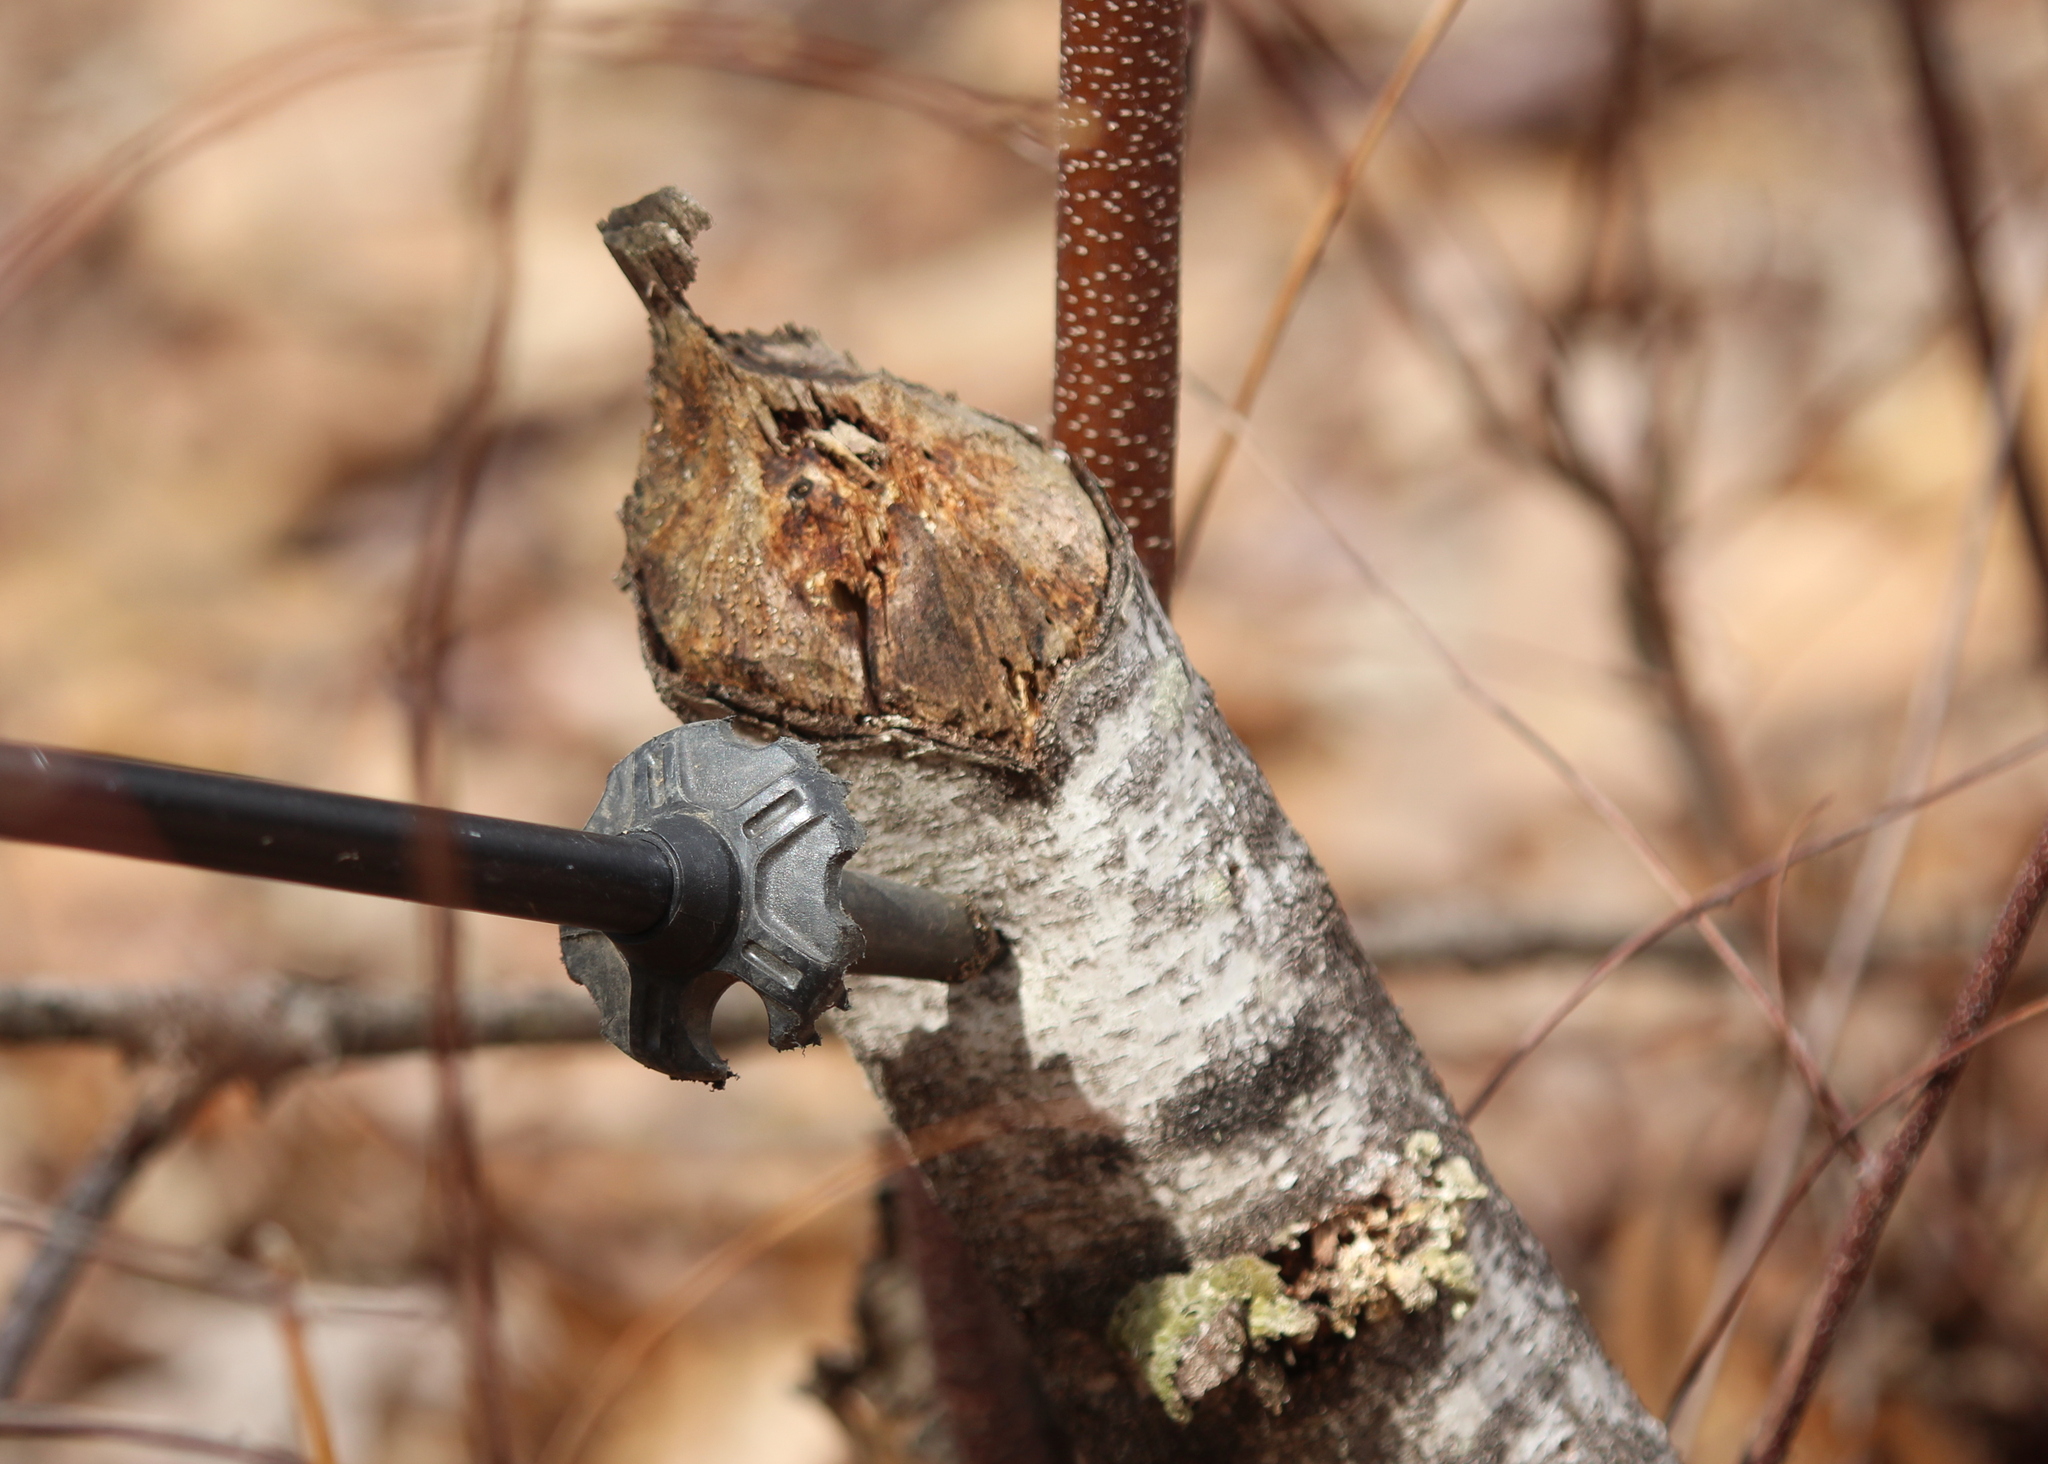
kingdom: Animalia
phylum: Chordata
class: Mammalia
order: Rodentia
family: Castoridae
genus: Castor
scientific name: Castor canadensis
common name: American beaver
